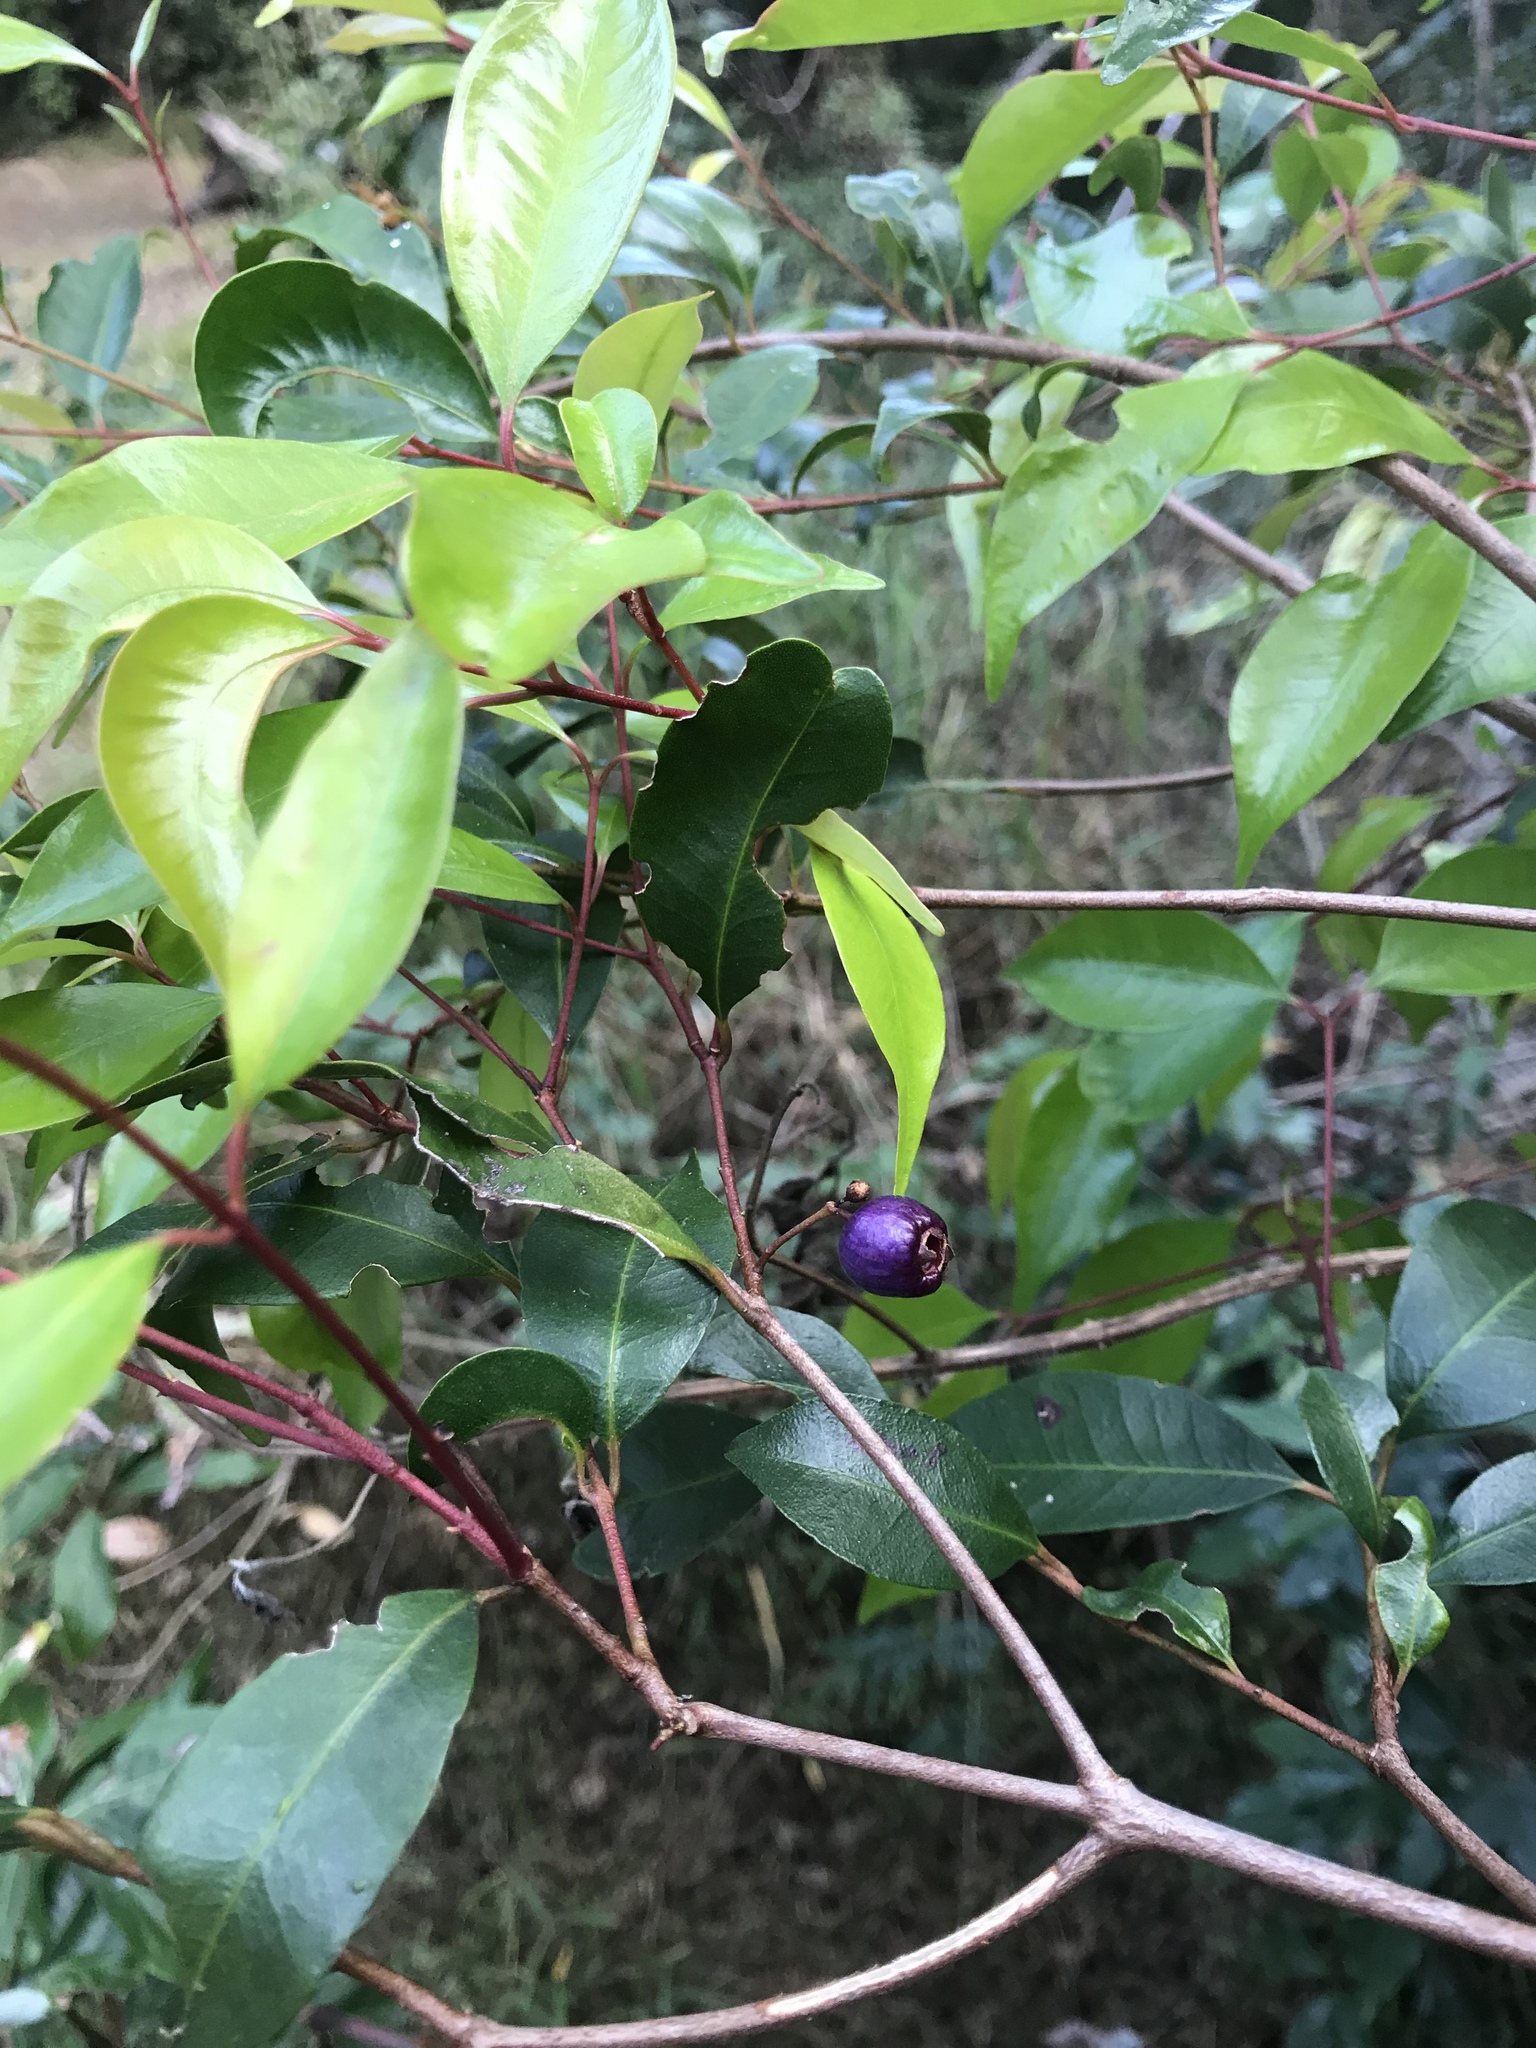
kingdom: Plantae
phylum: Tracheophyta
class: Magnoliopsida
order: Myrtales
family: Myrtaceae
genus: Syzygium
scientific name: Syzygium oleosum
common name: Oily satin-ash
